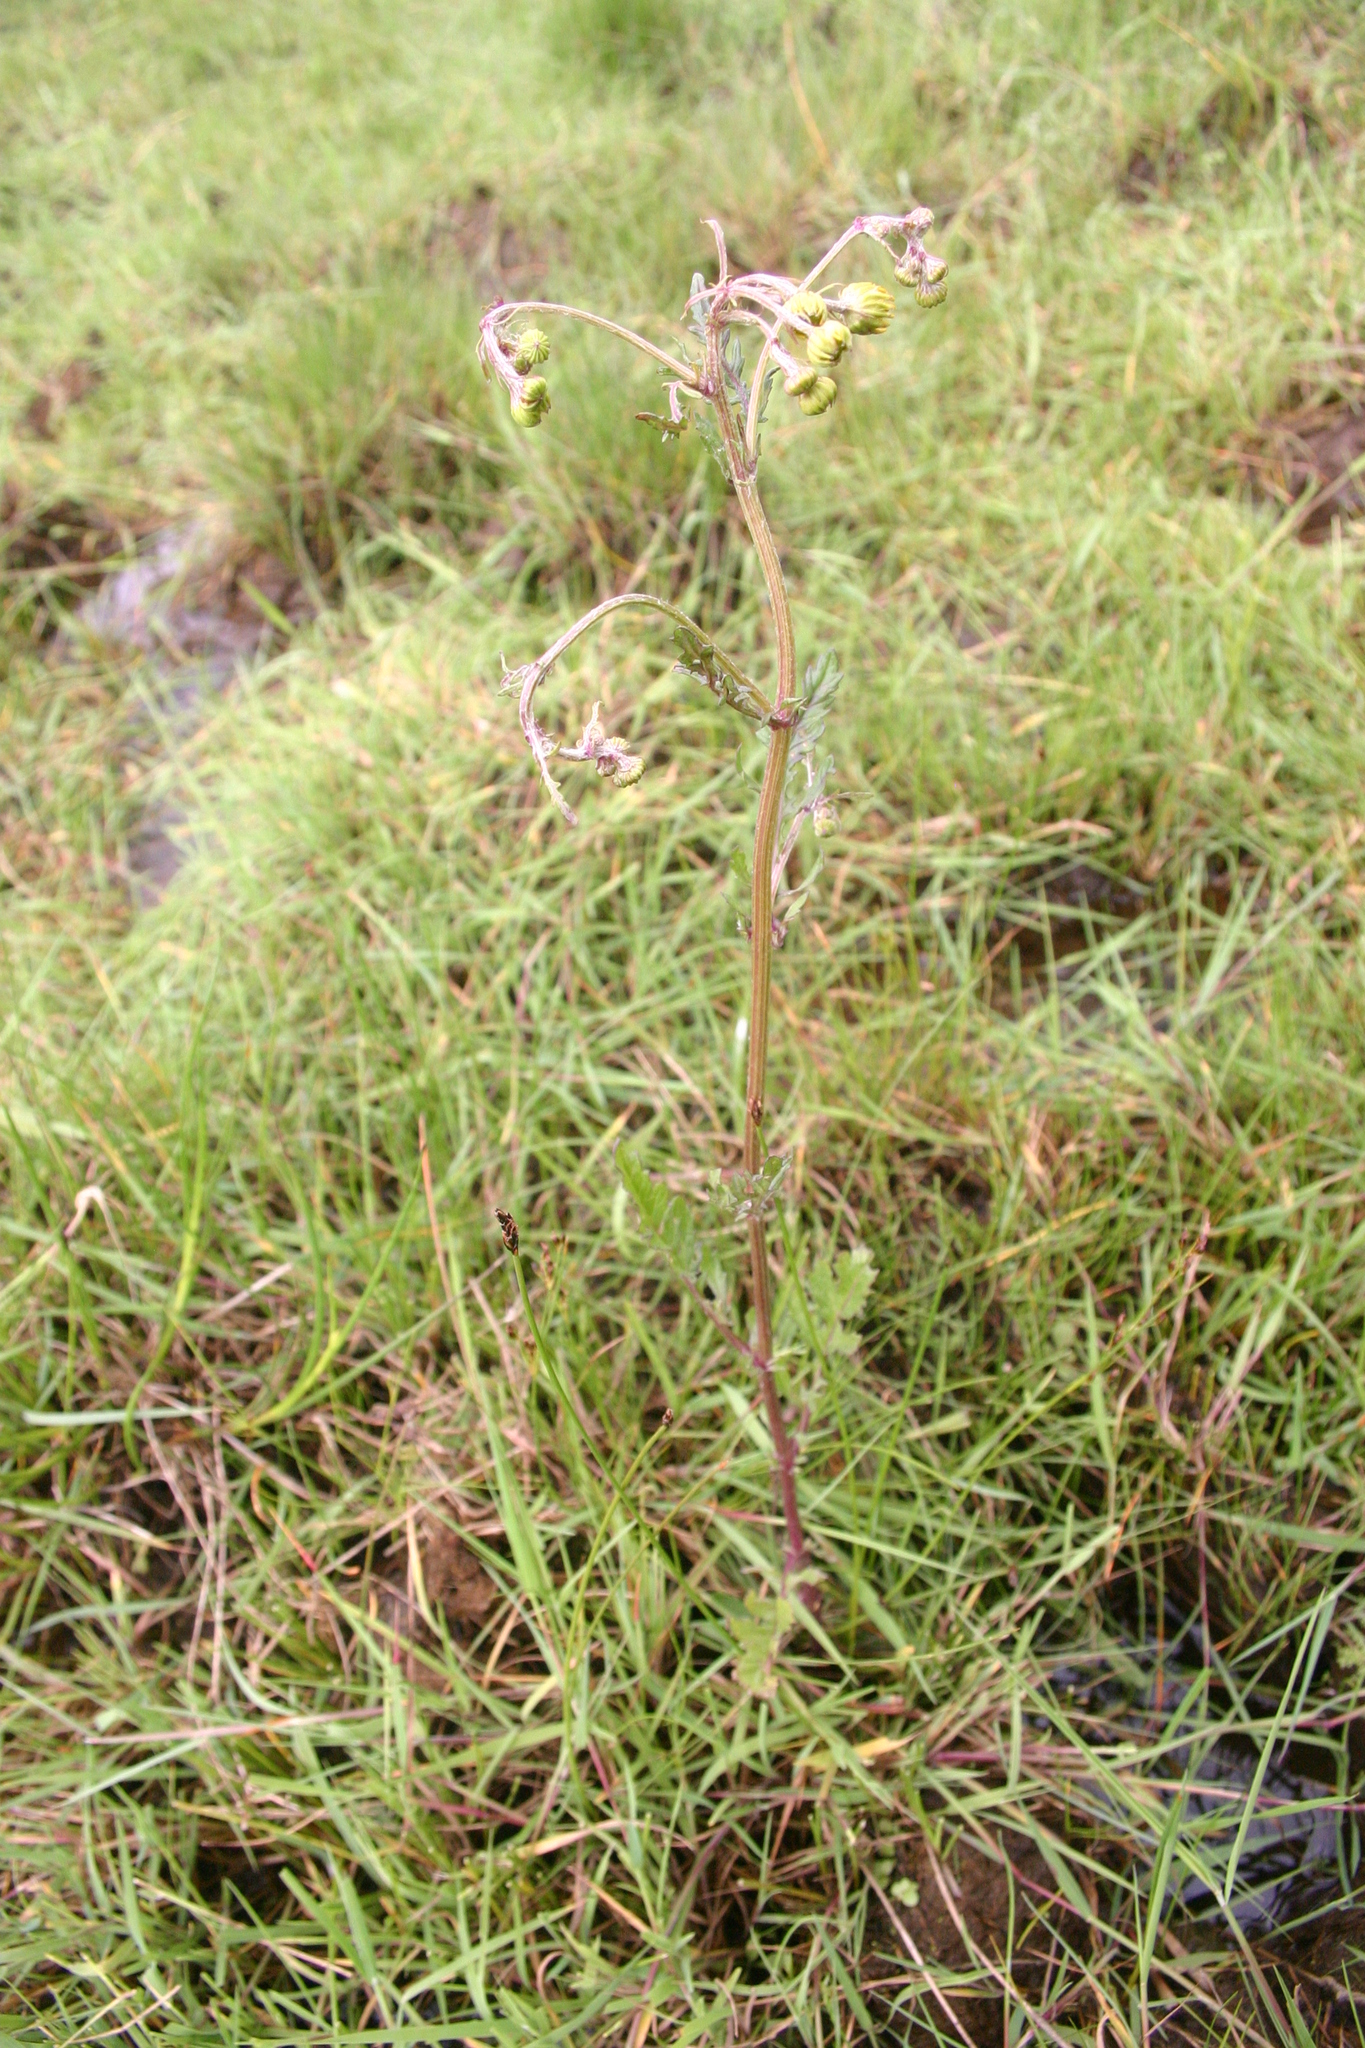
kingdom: Plantae
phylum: Tracheophyta
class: Magnoliopsida
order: Asterales
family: Asteraceae
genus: Jacobaea
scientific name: Jacobaea aquatica
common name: Water ragwort
